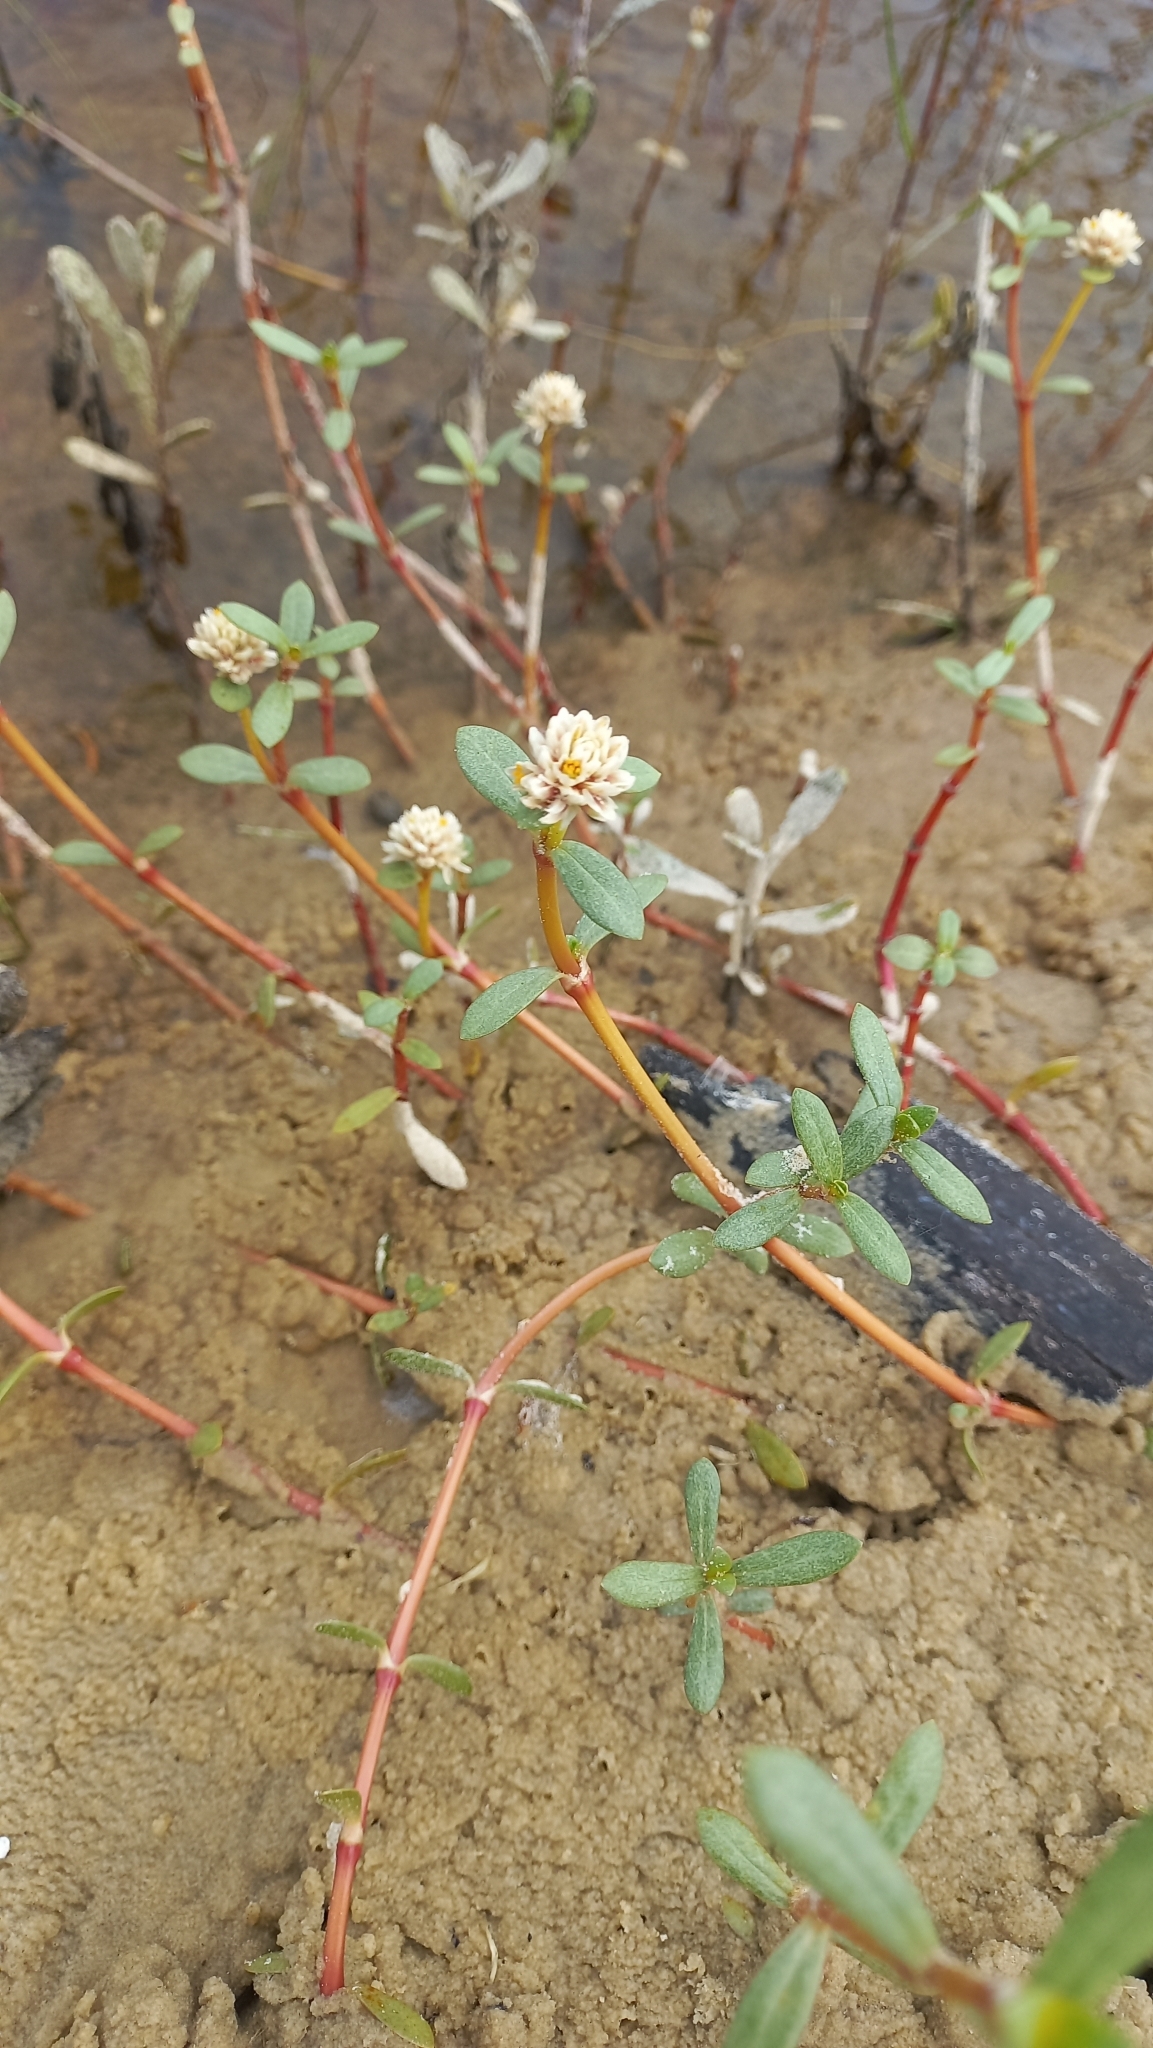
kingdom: Plantae
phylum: Tracheophyta
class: Magnoliopsida
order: Caryophyllales
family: Amaranthaceae
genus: Gomphrena
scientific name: Gomphrena portulacoides
